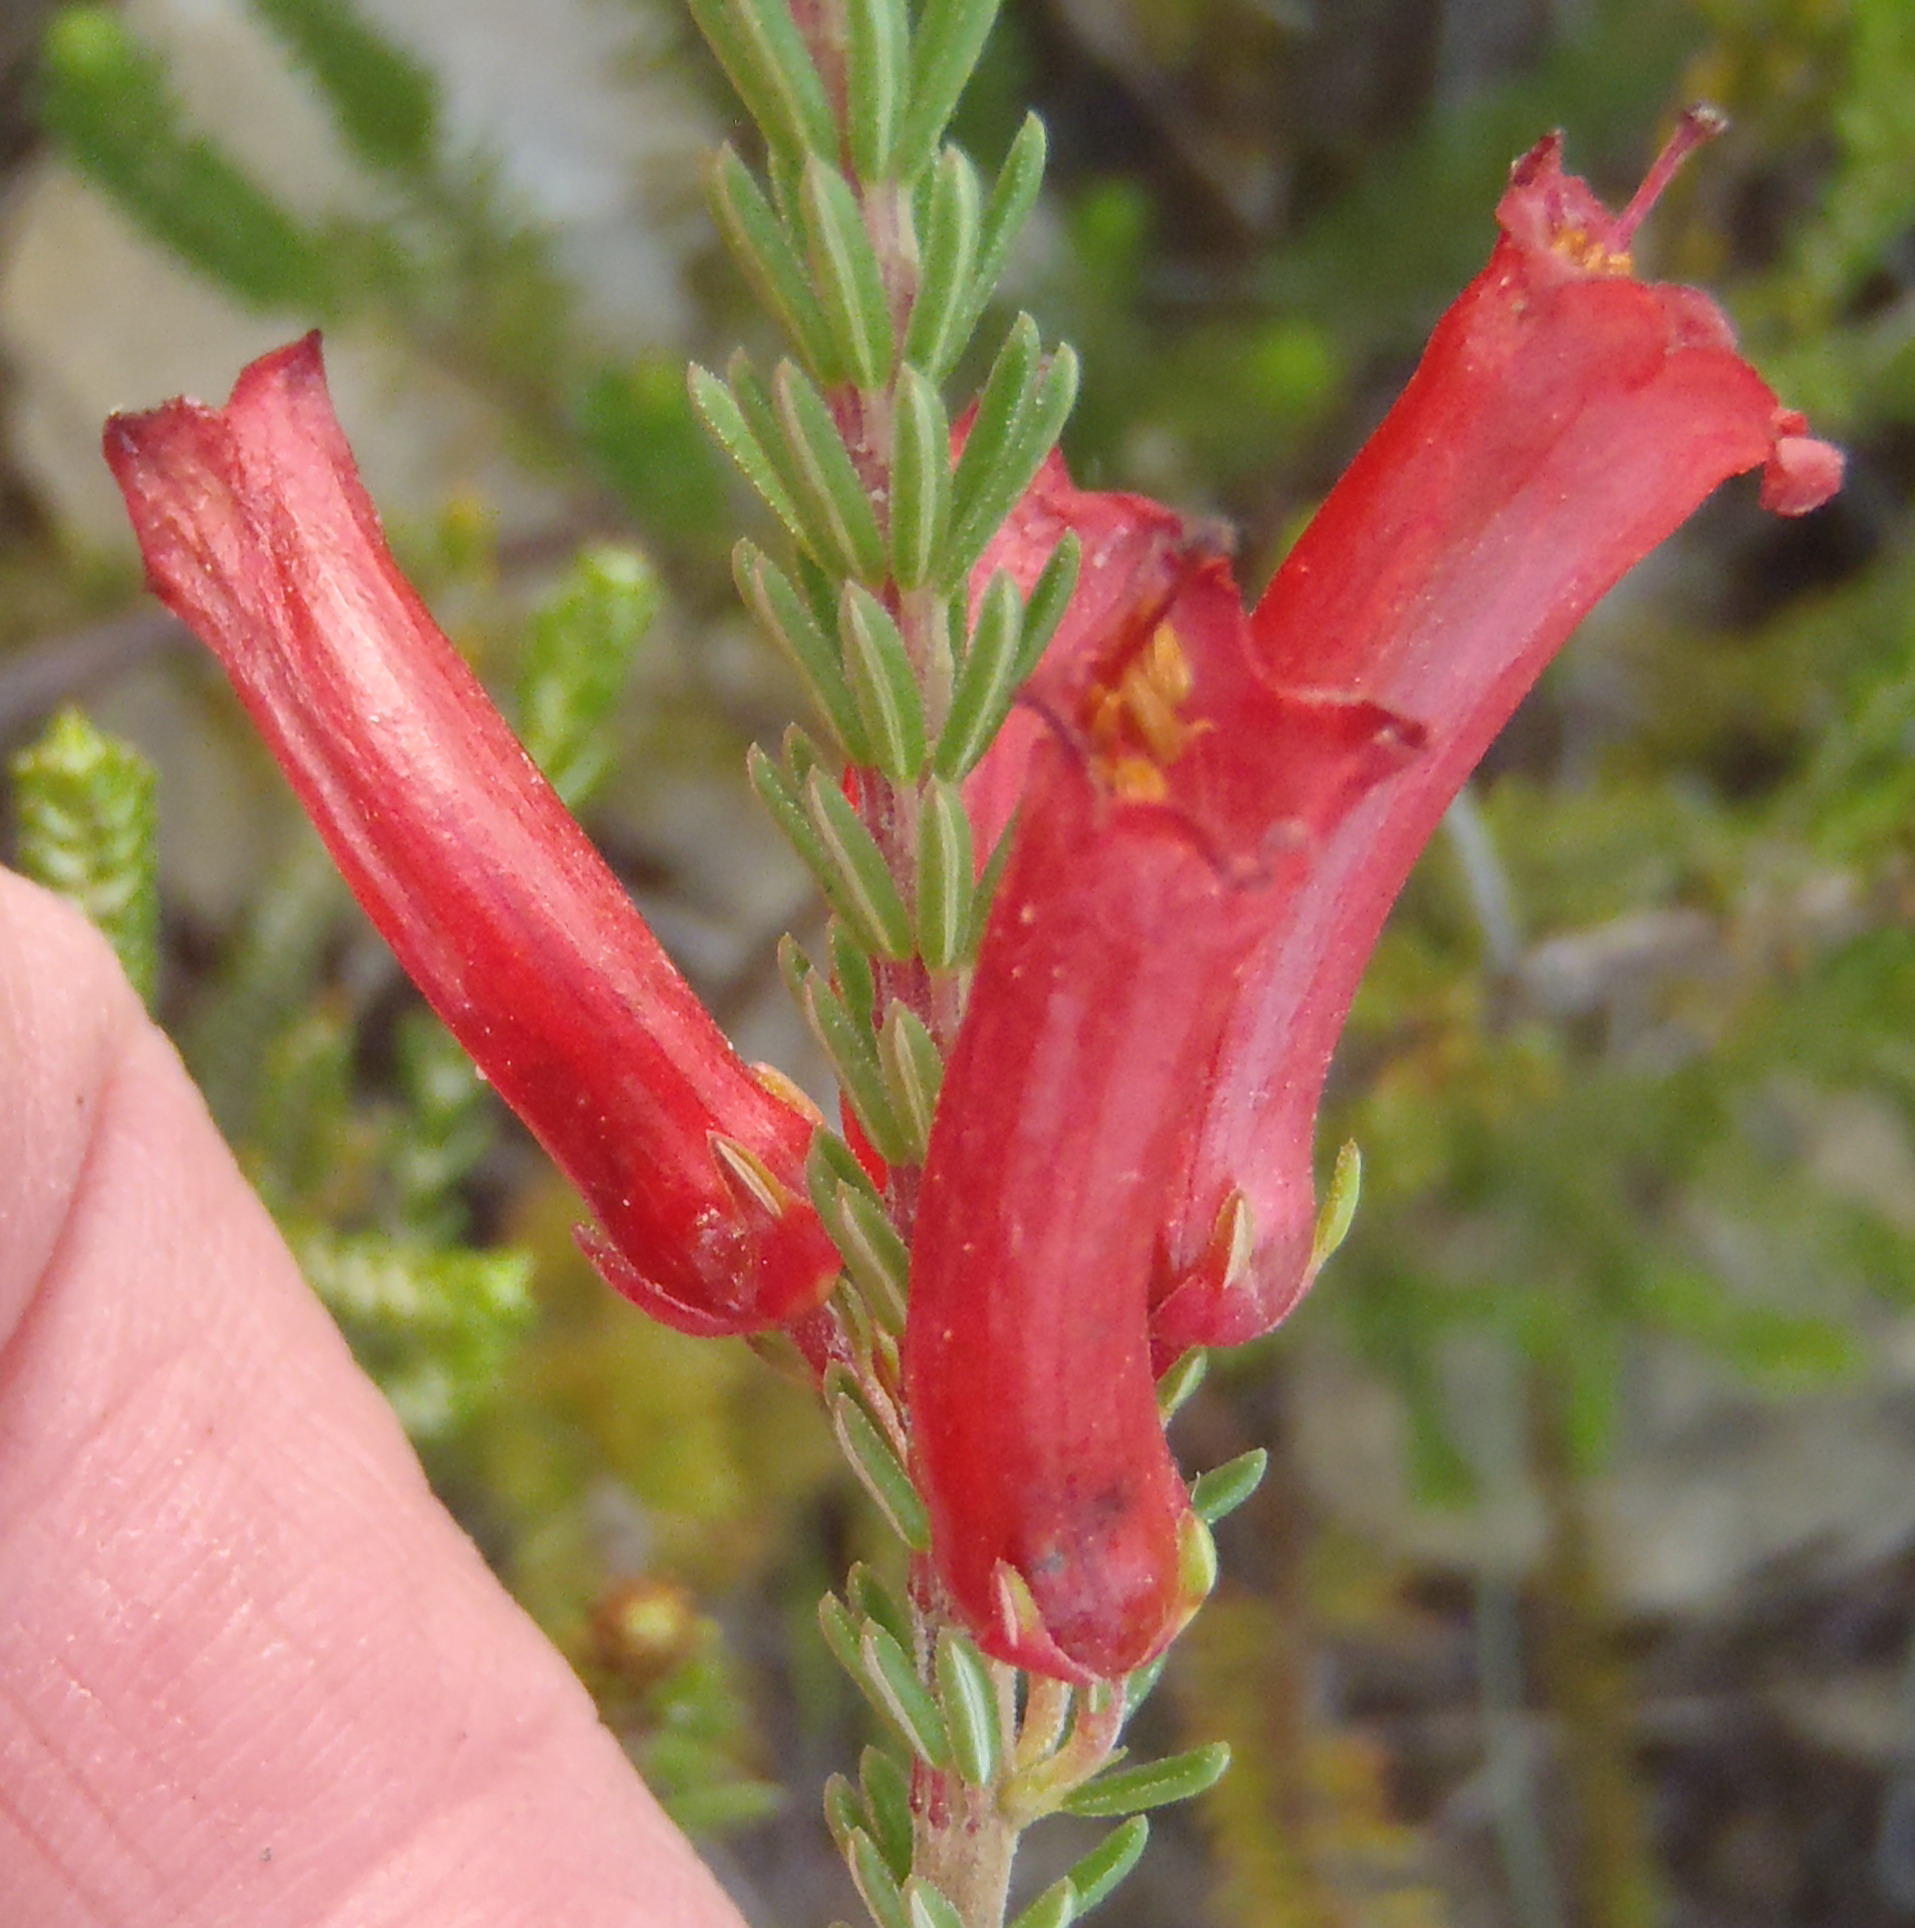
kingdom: Plantae
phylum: Tracheophyta
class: Magnoliopsida
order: Ericales
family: Ericaceae
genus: Erica
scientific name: Erica regia
